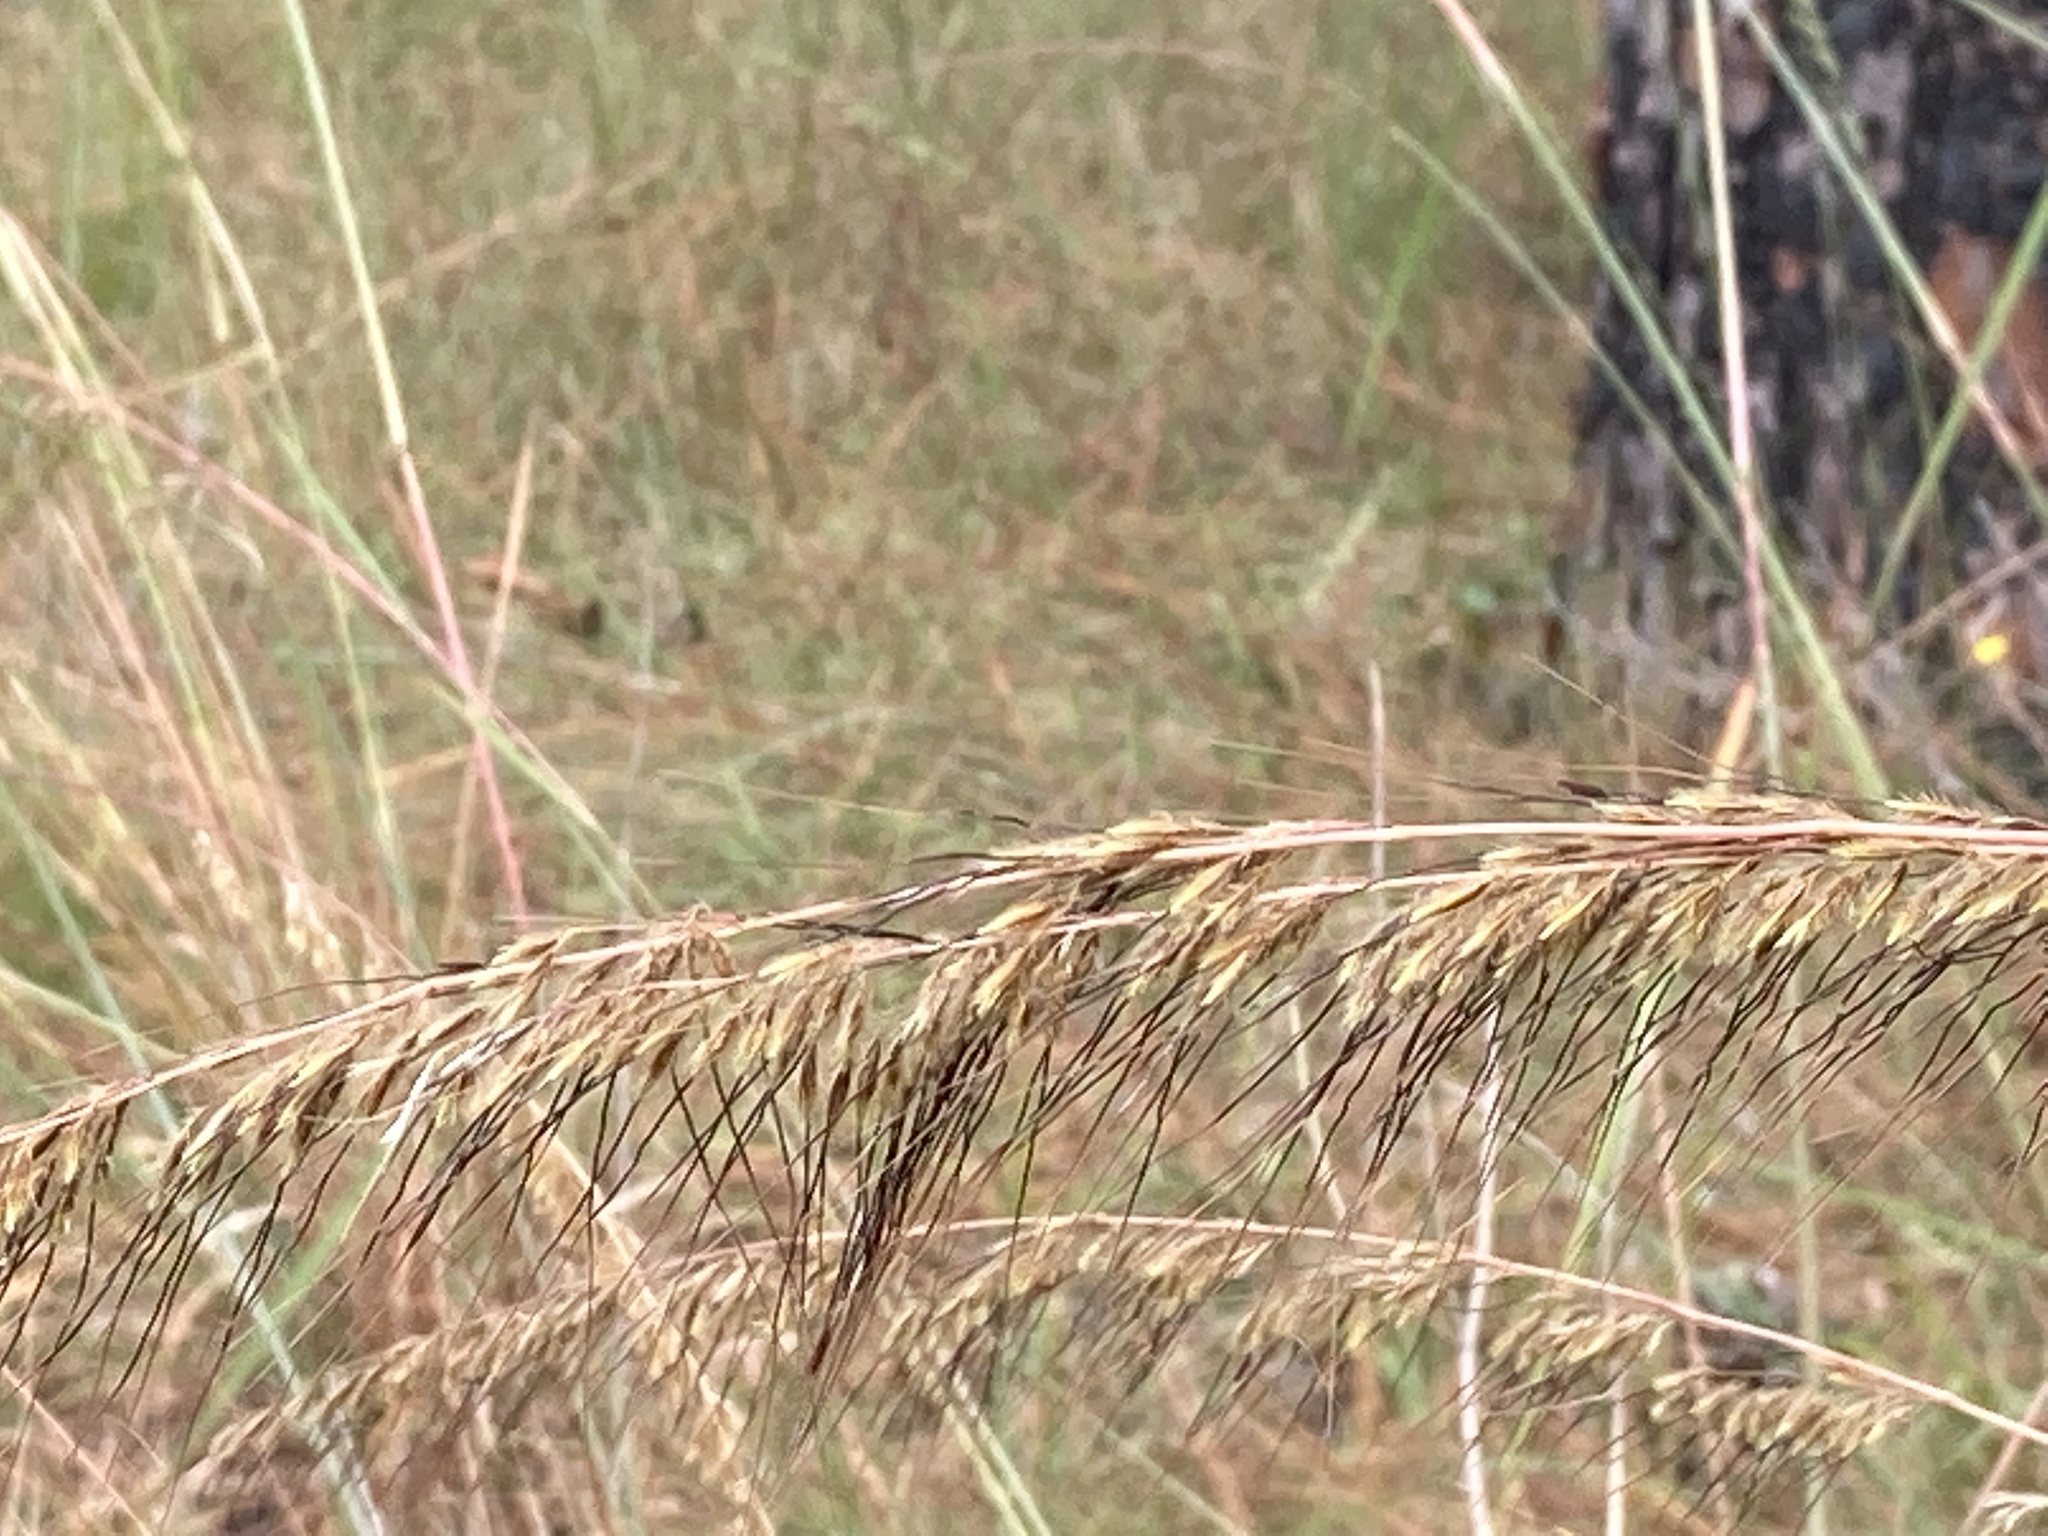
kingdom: Plantae
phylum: Tracheophyta
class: Liliopsida
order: Poales
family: Poaceae
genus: Sorghastrum
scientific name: Sorghastrum secundum
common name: Lopsided indian grass
